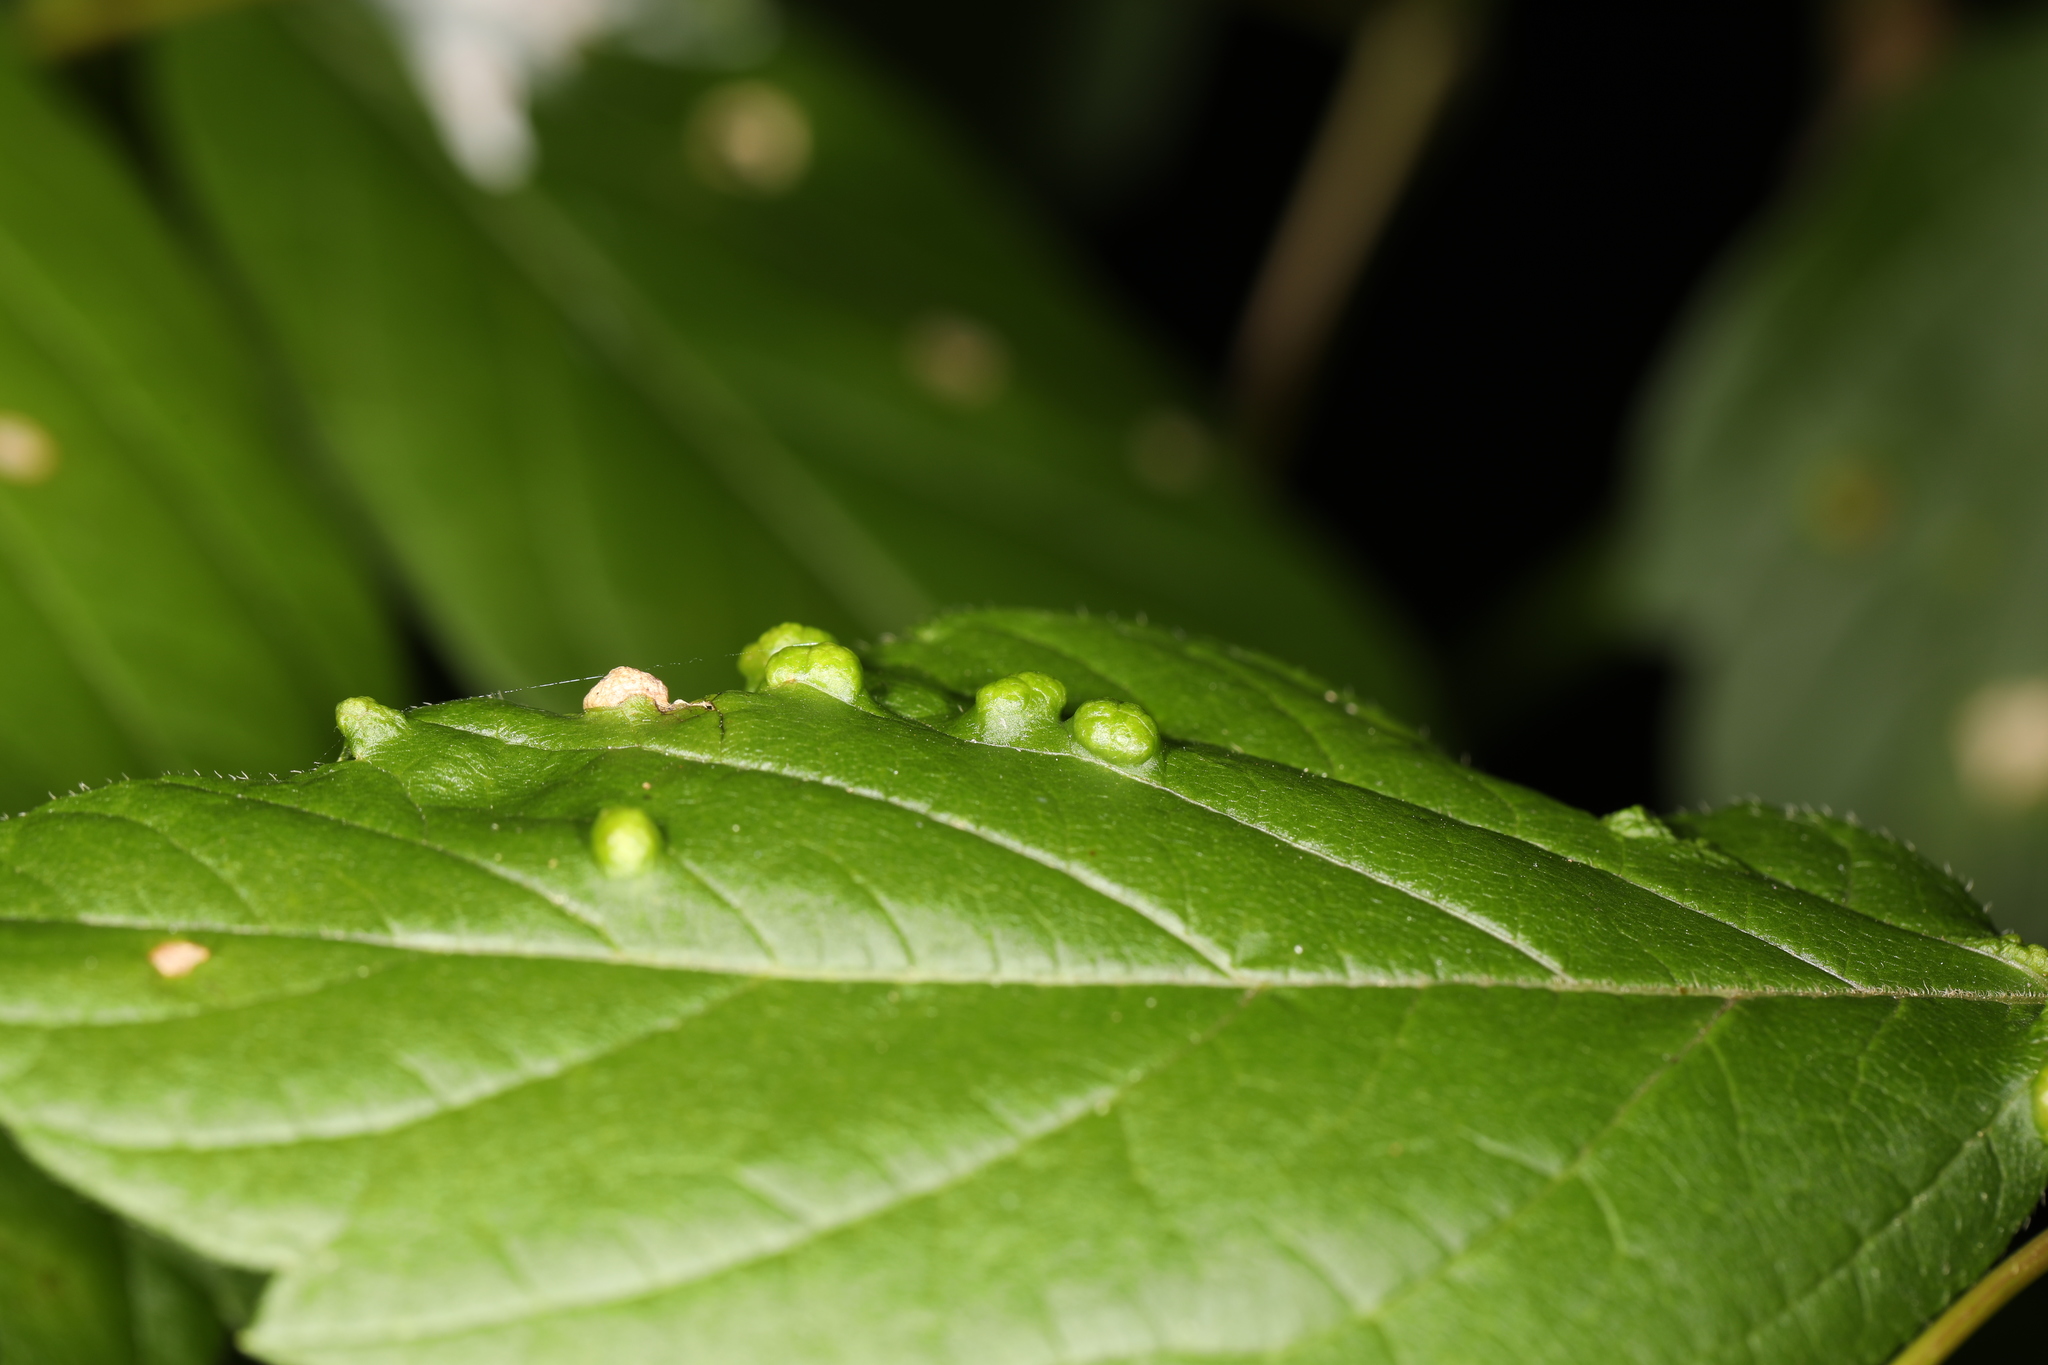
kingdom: Animalia
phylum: Arthropoda
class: Arachnida
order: Trombidiformes
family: Eriophyidae
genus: Aceria
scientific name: Aceria
